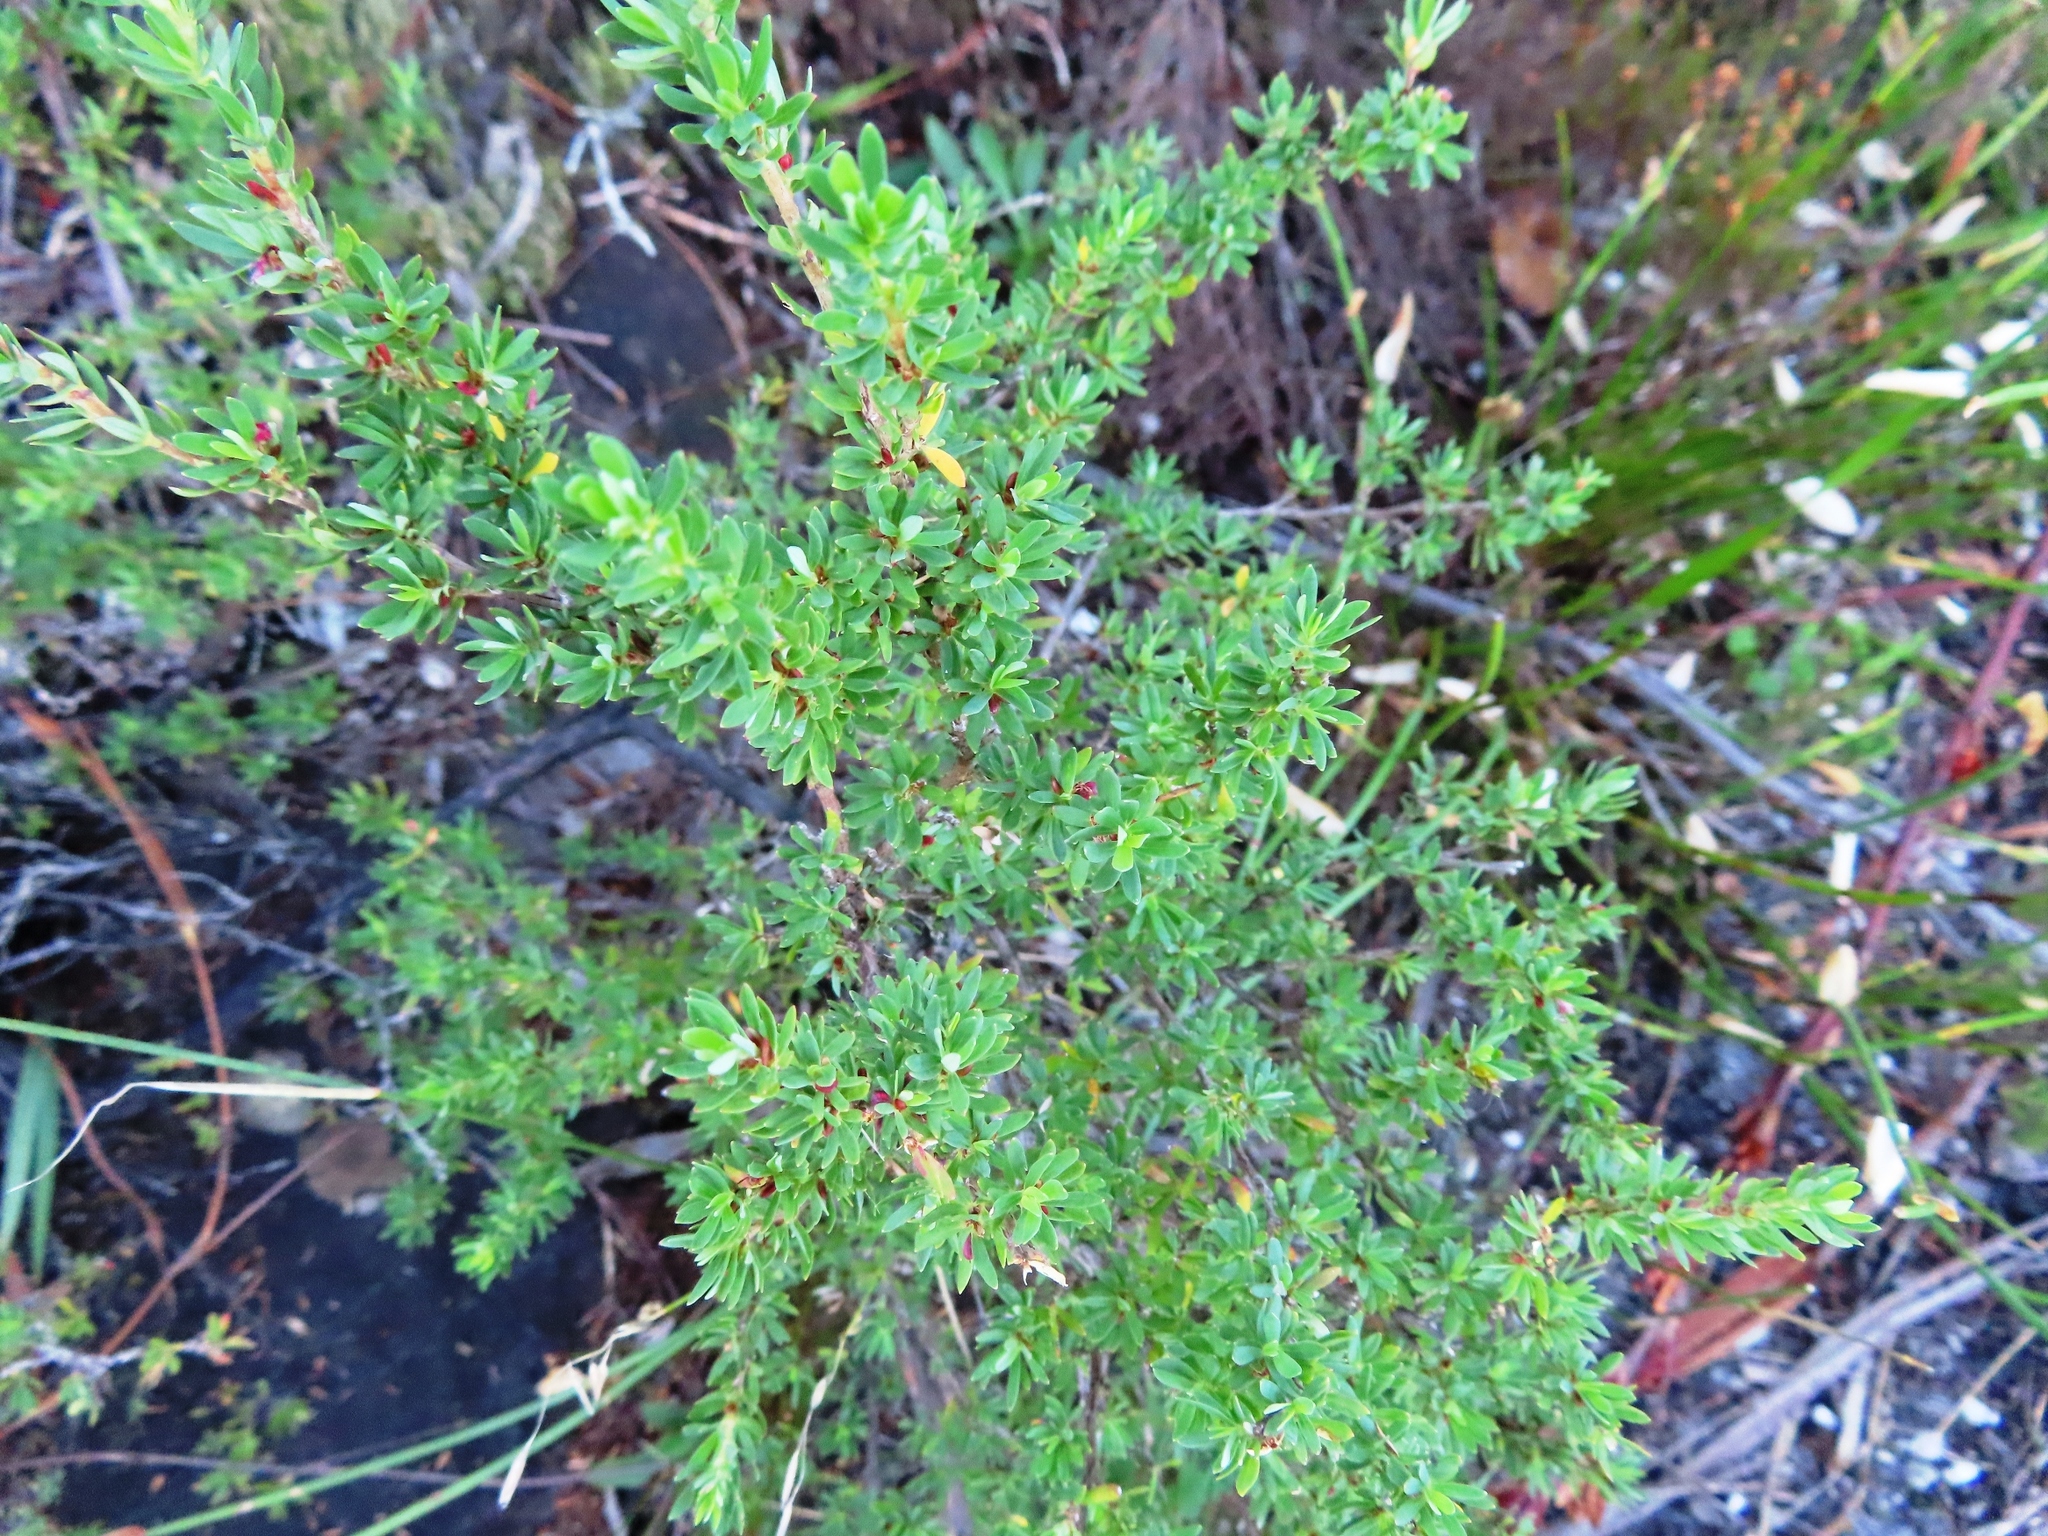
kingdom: Plantae
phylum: Tracheophyta
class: Magnoliopsida
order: Rosales
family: Rosaceae
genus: Cliffortia
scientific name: Cliffortia complanata
